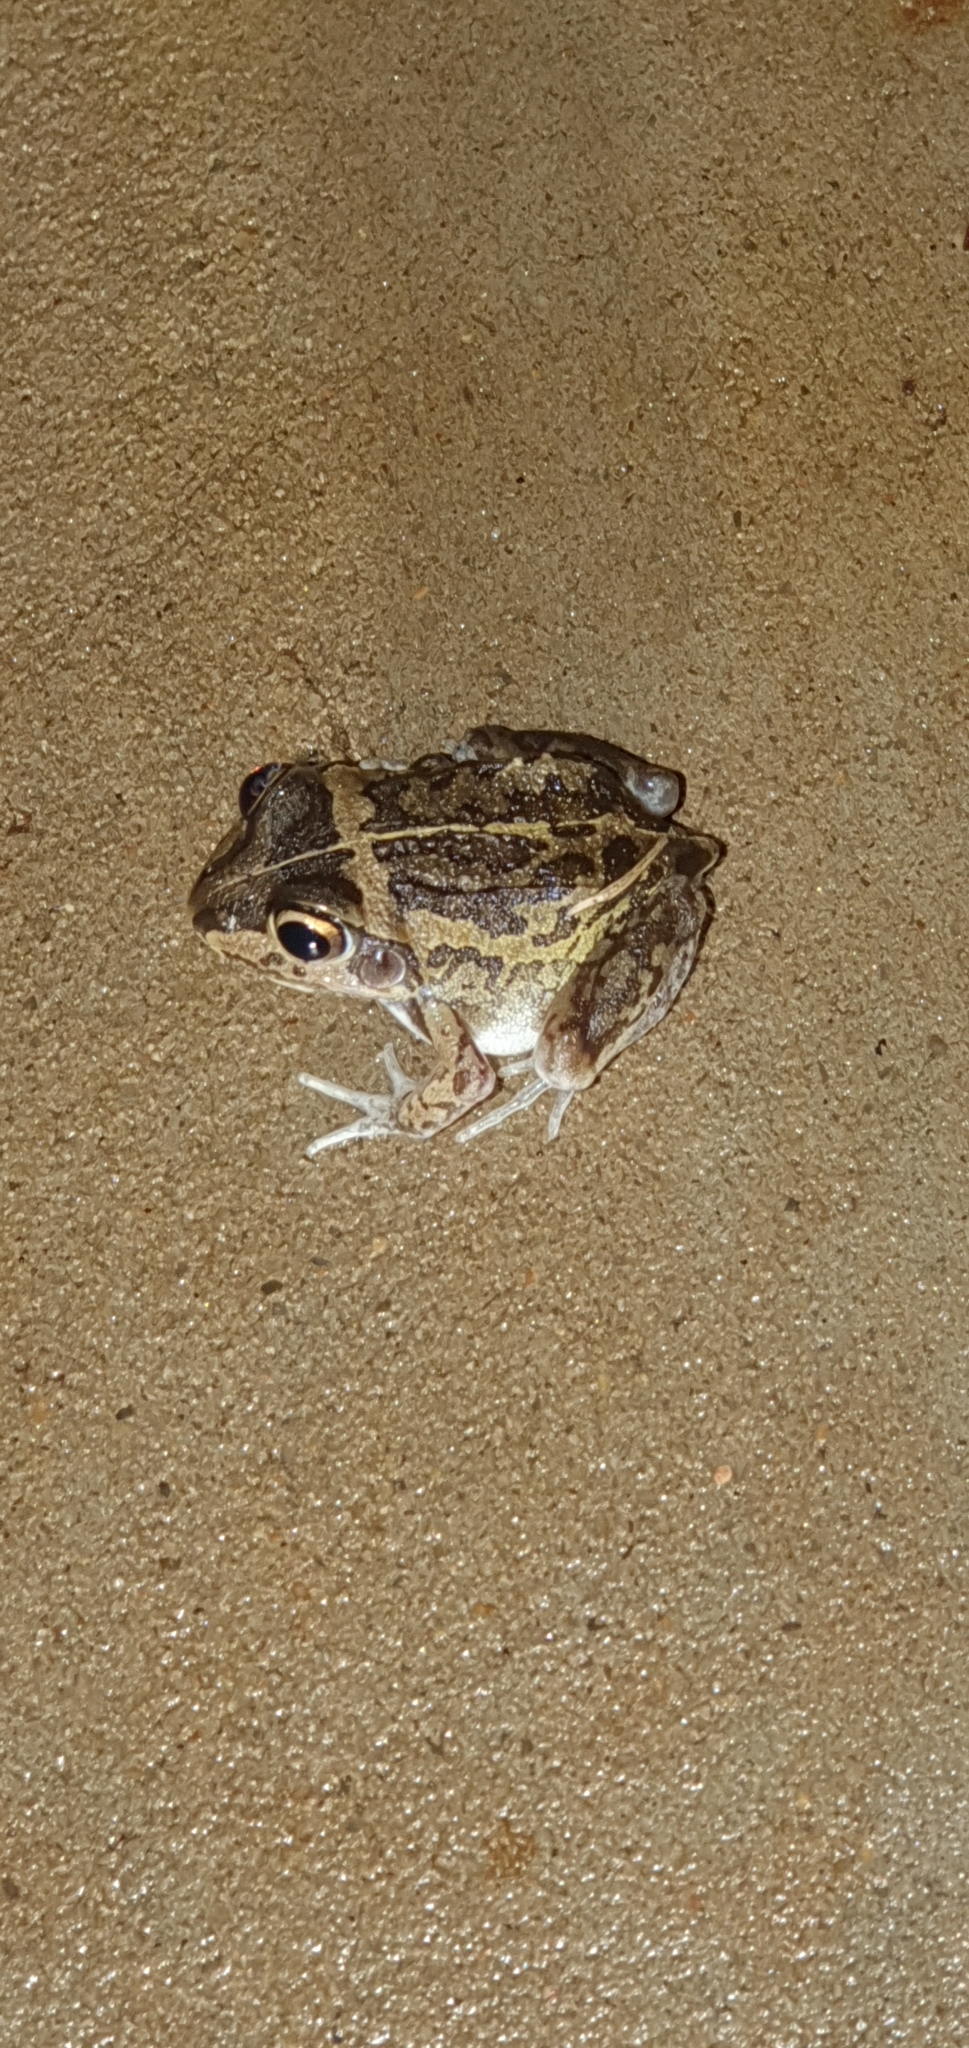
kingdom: Animalia
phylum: Chordata
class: Amphibia
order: Anura
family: Pelodryadidae
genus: Ranoidea
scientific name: Ranoidea brevipes
